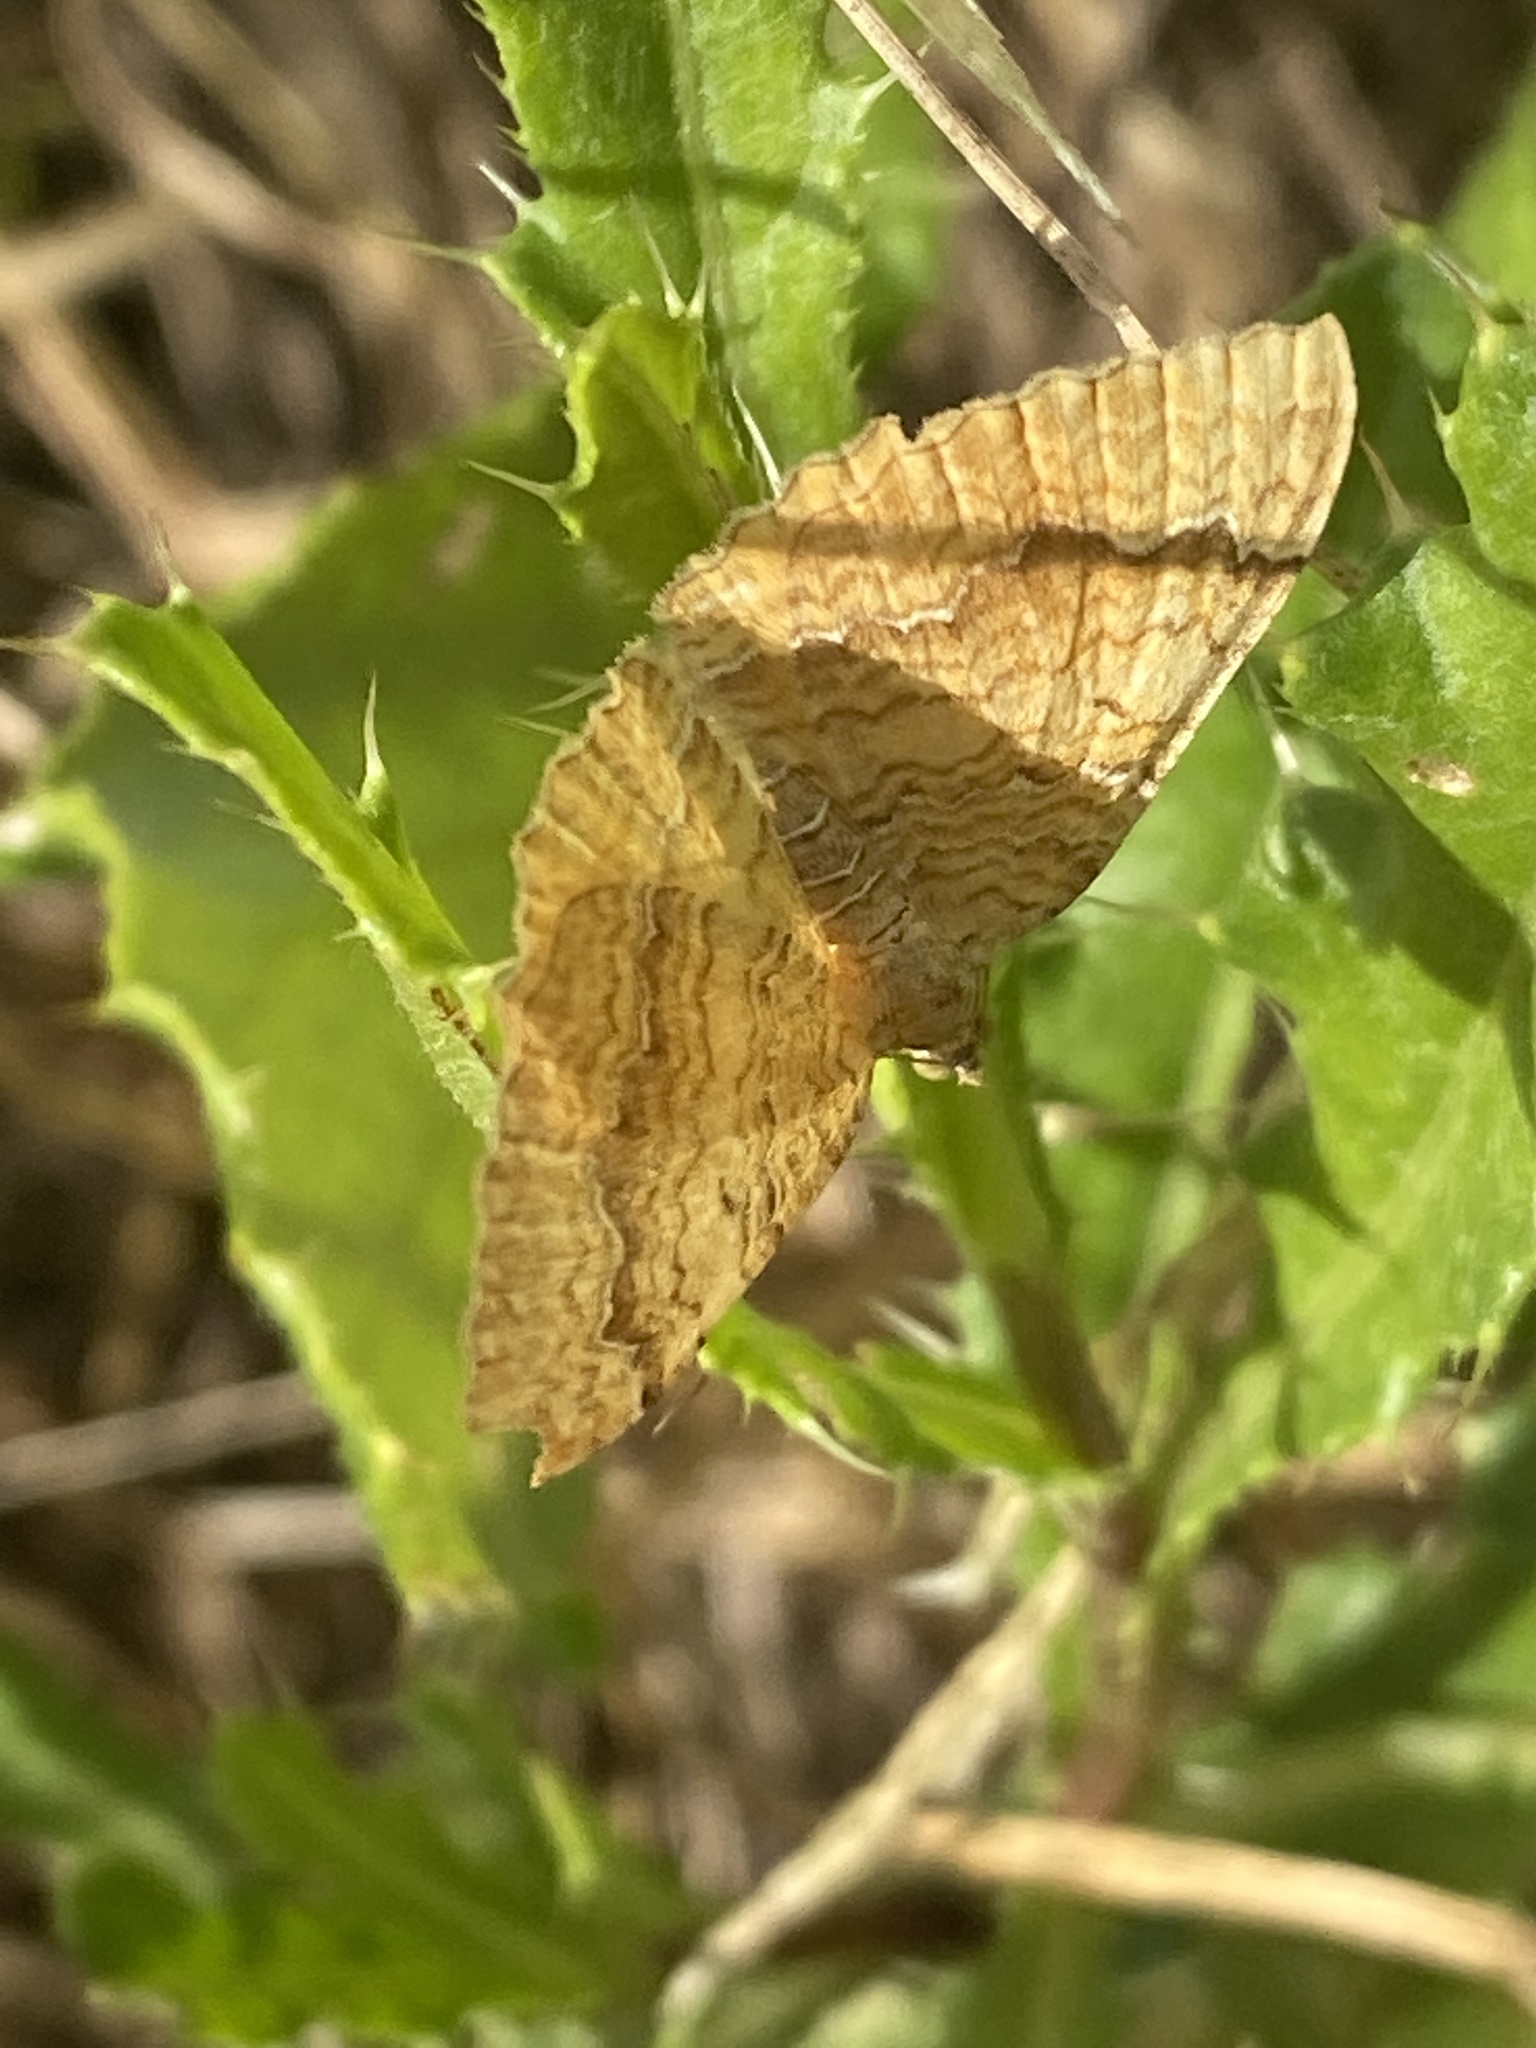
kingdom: Animalia
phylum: Arthropoda
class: Insecta
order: Lepidoptera
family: Geometridae
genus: Camptogramma
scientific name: Camptogramma bilineata
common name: Yellow shell
